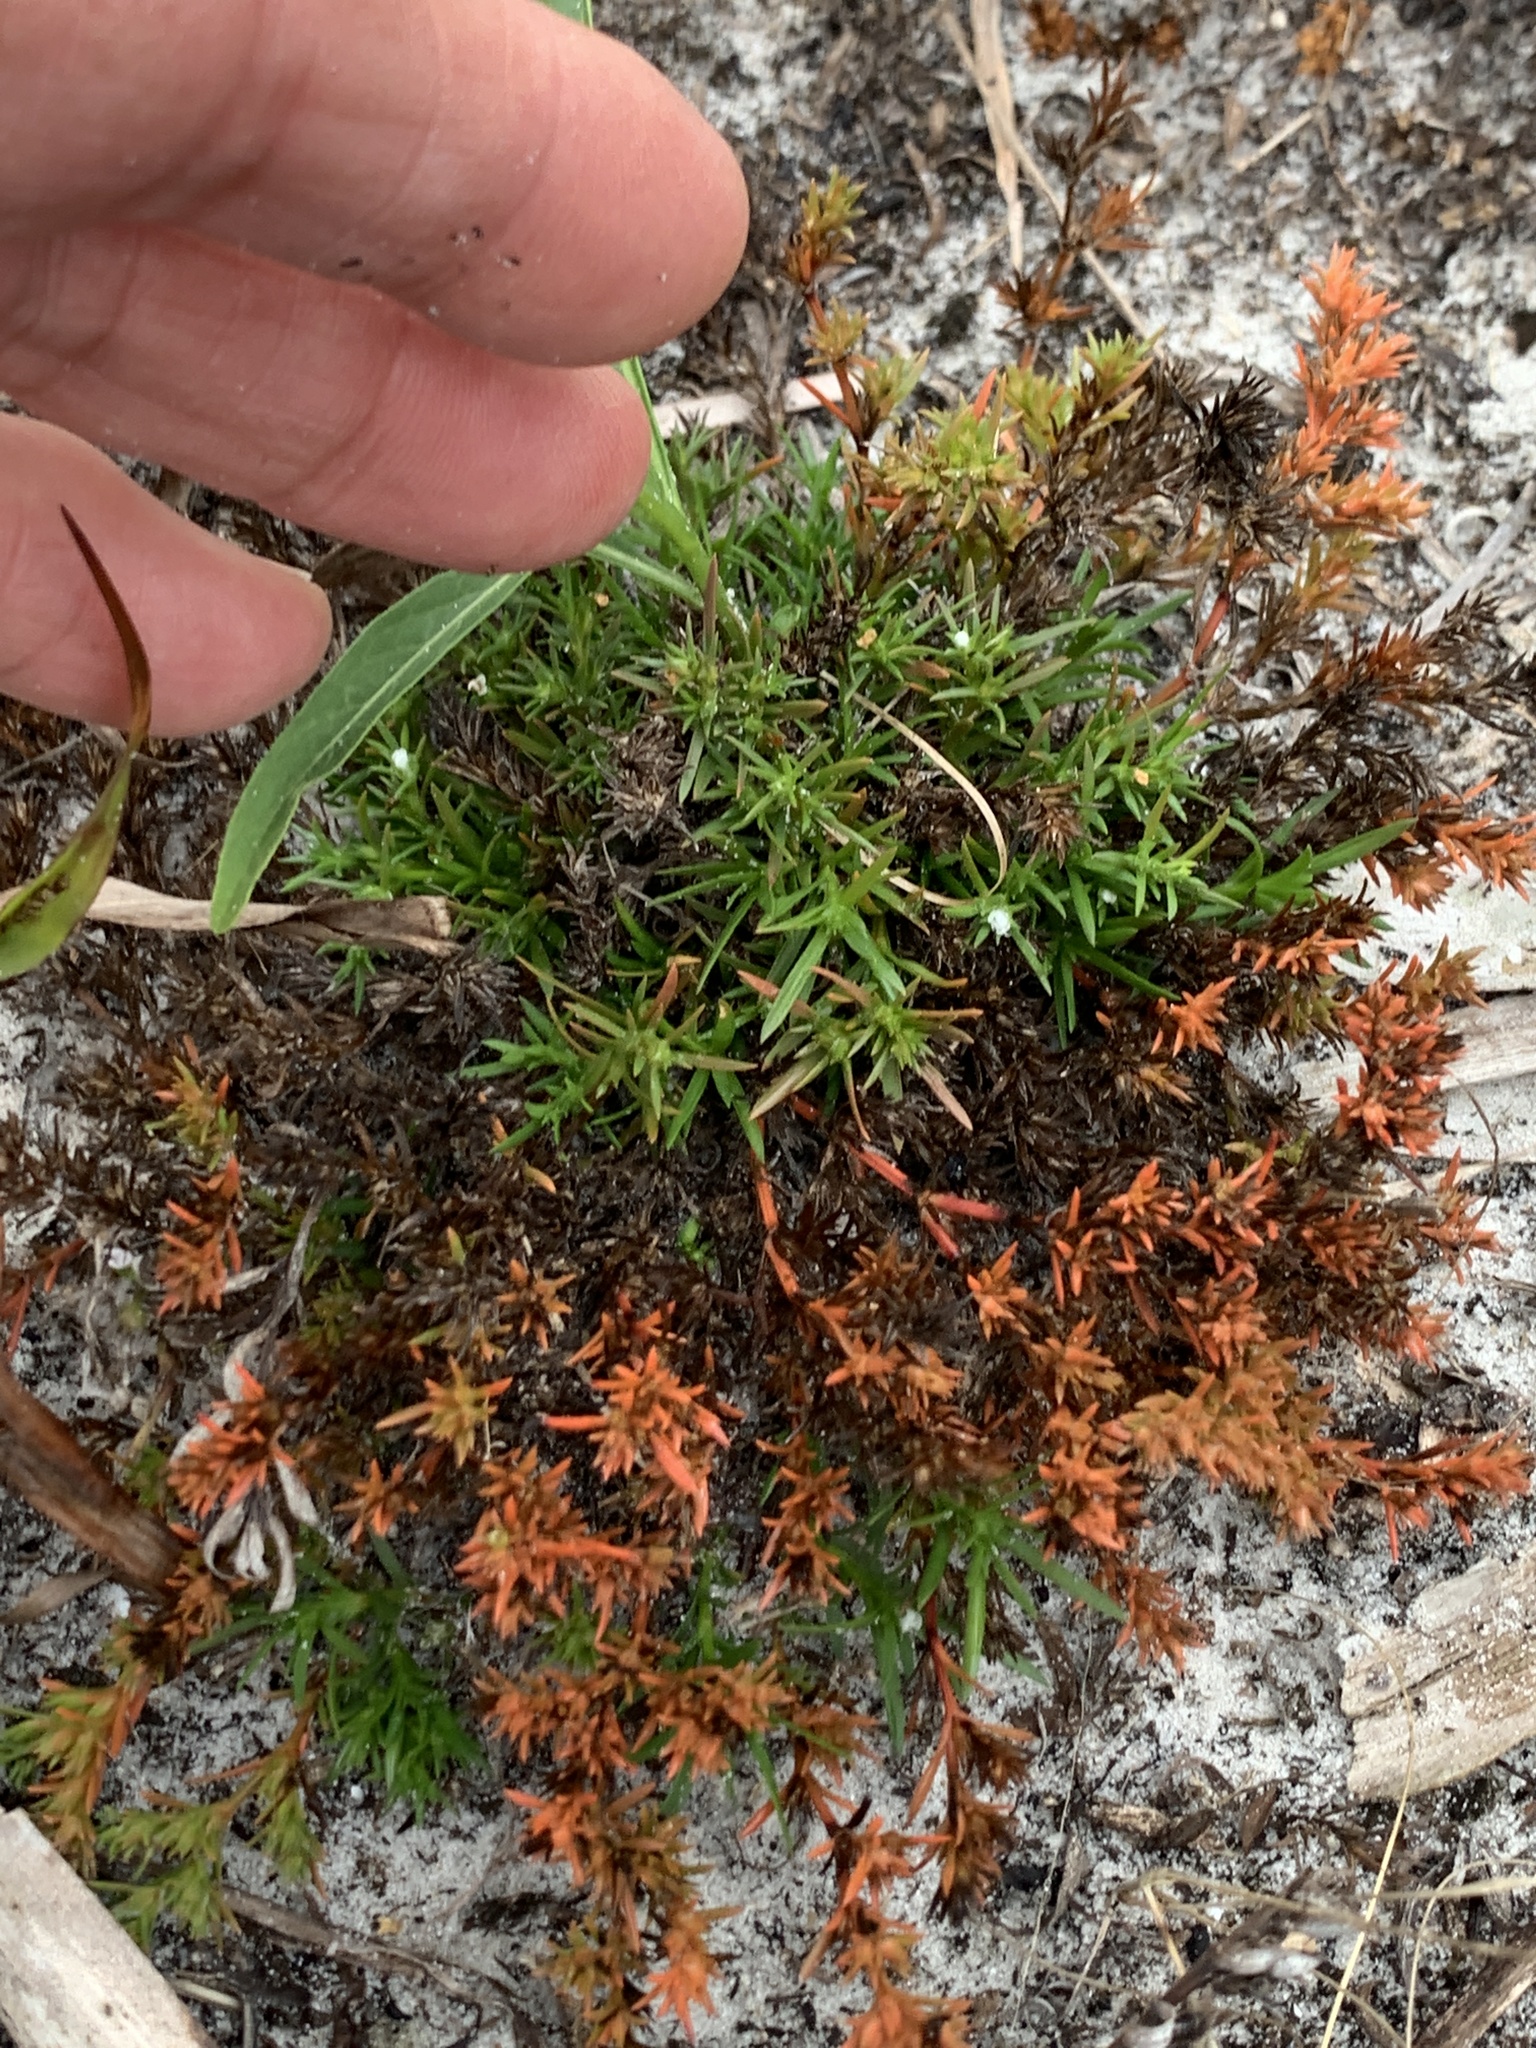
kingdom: Plantae
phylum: Tracheophyta
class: Magnoliopsida
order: Lamiales
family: Tetrachondraceae
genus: Polypremum
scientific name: Polypremum procumbens
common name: Juniper-leaf
